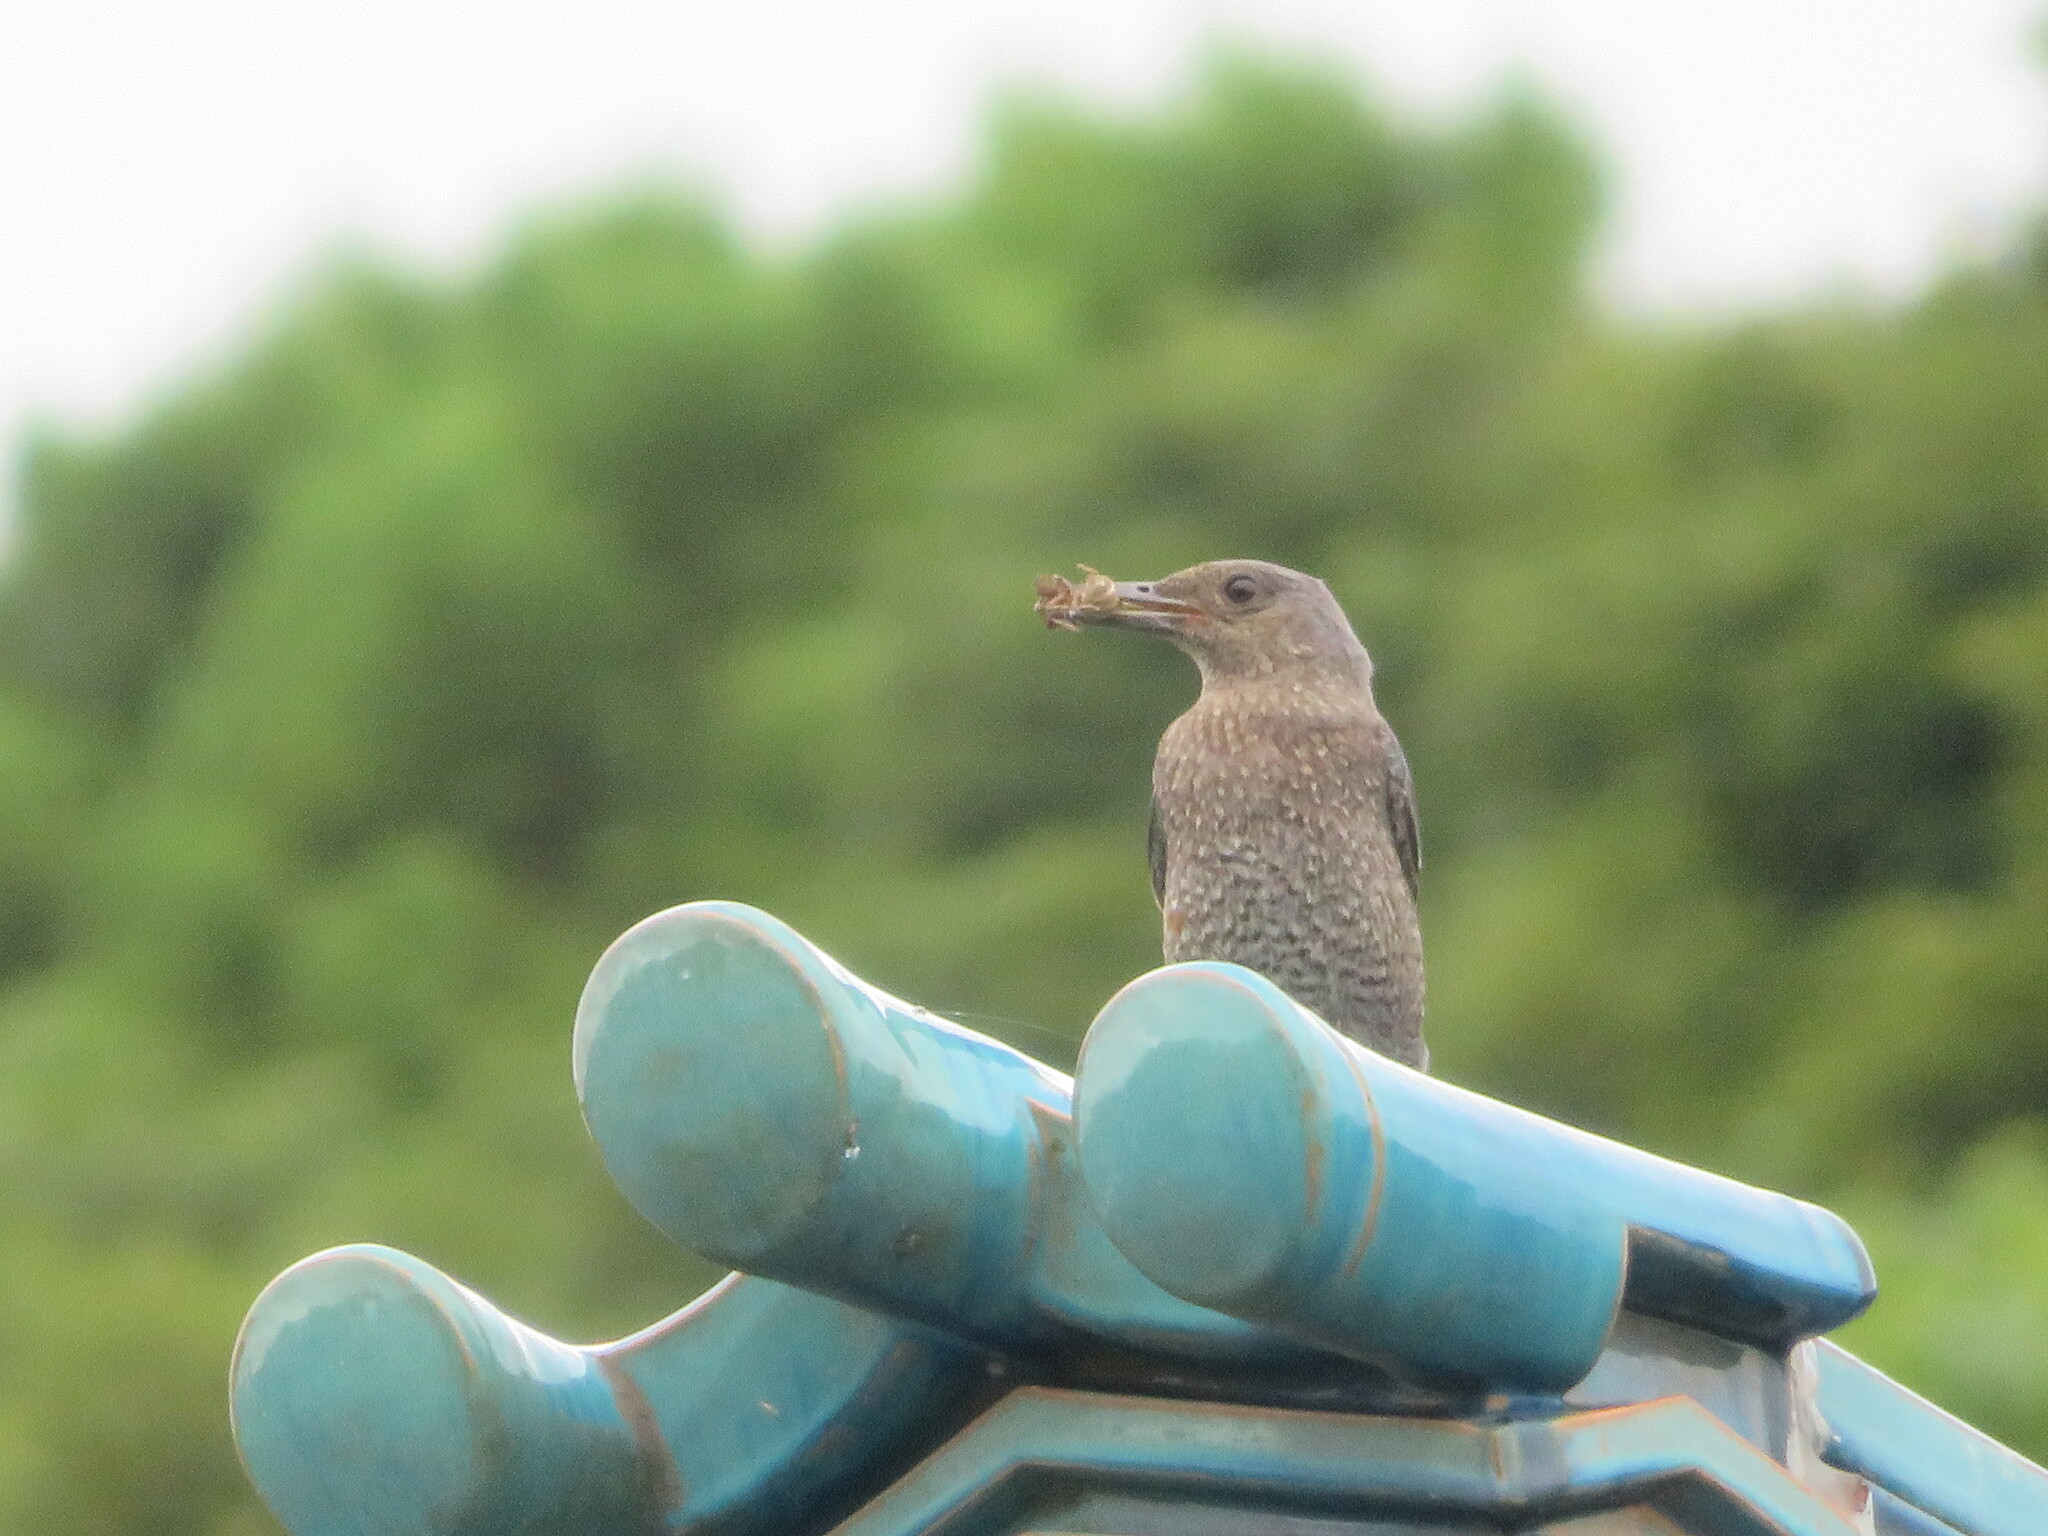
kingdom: Animalia
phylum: Chordata
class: Aves
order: Passeriformes
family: Muscicapidae
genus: Monticola
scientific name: Monticola solitarius
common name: Blue rock thrush
